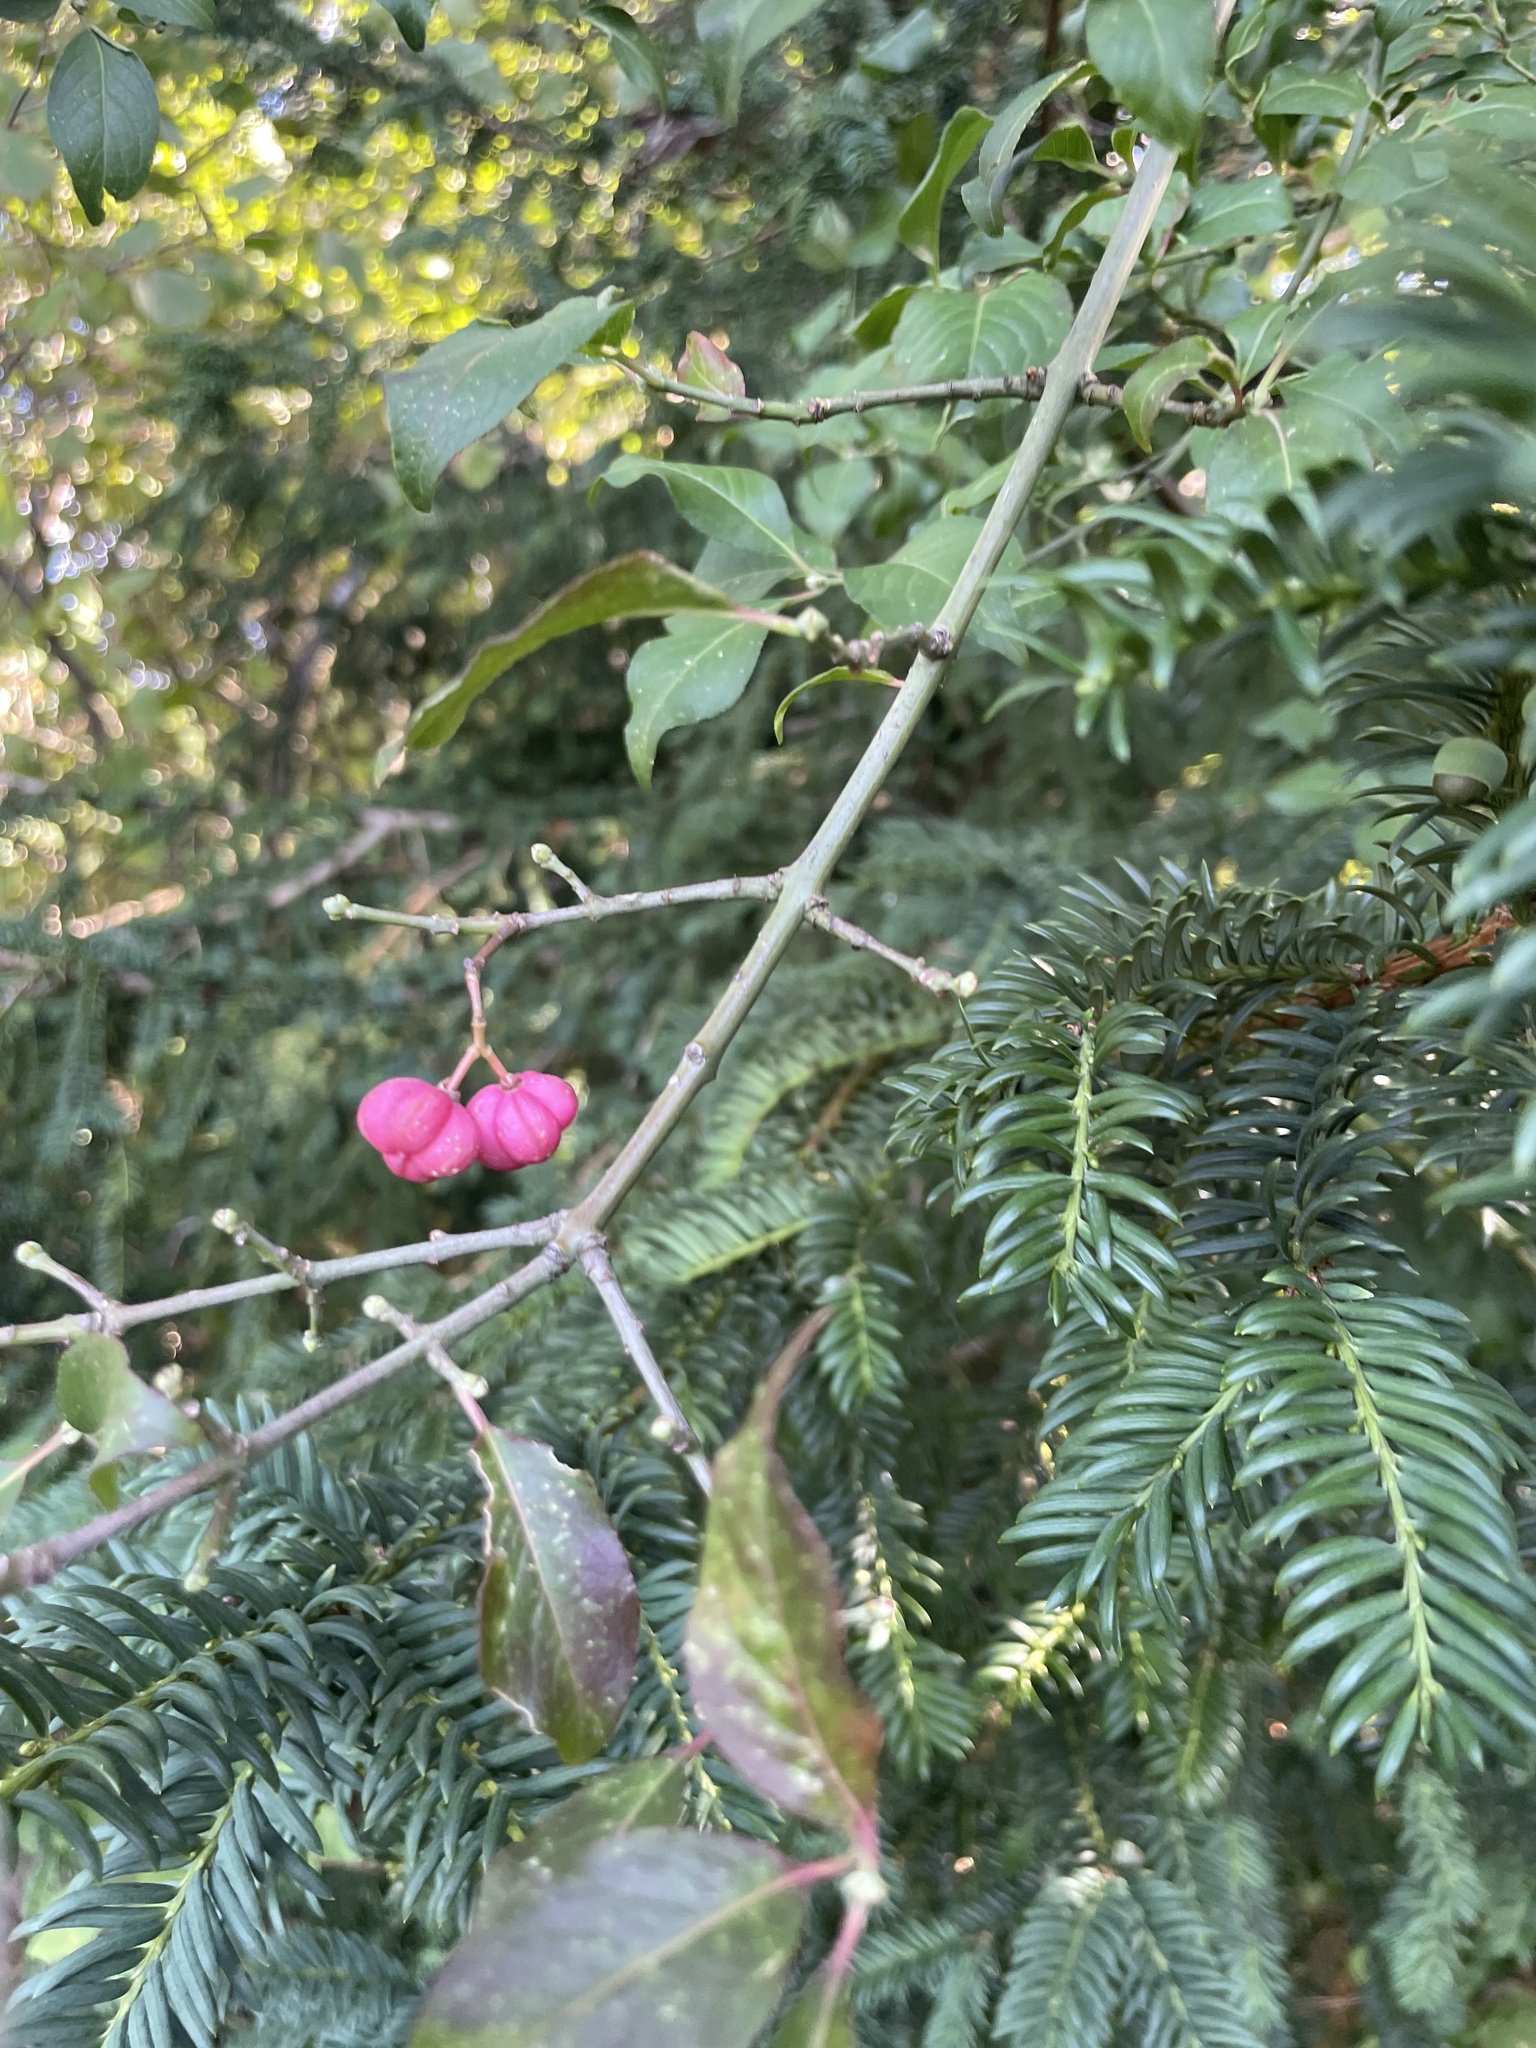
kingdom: Plantae
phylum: Tracheophyta
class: Magnoliopsida
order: Celastrales
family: Celastraceae
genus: Euonymus
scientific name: Euonymus europaeus
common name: Spindle
